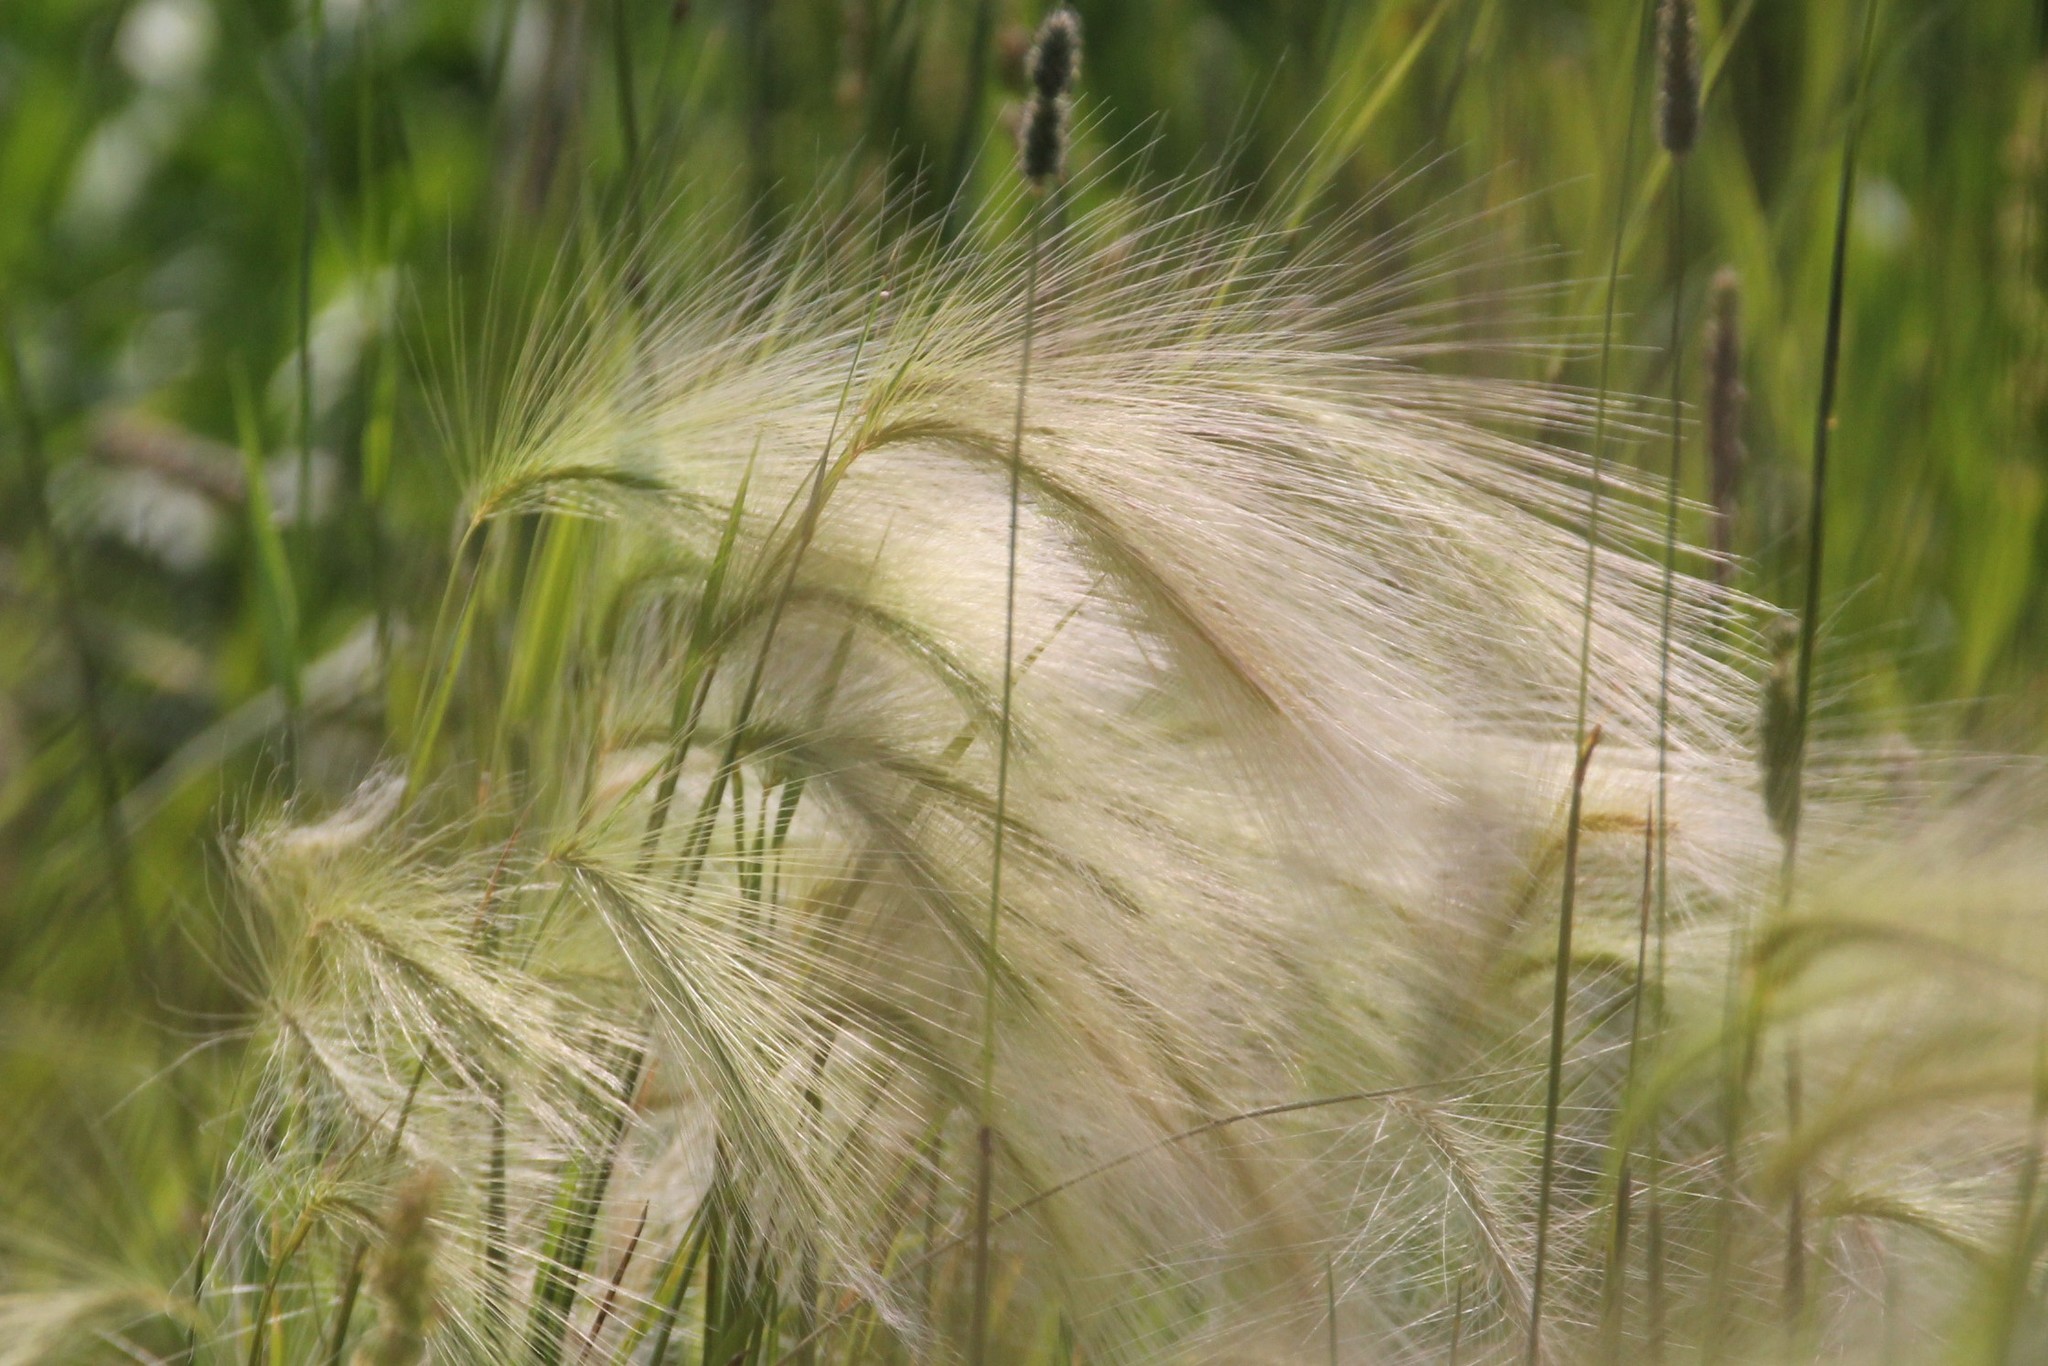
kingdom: Plantae
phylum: Tracheophyta
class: Liliopsida
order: Poales
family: Poaceae
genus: Hordeum
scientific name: Hordeum jubatum
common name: Foxtail barley
